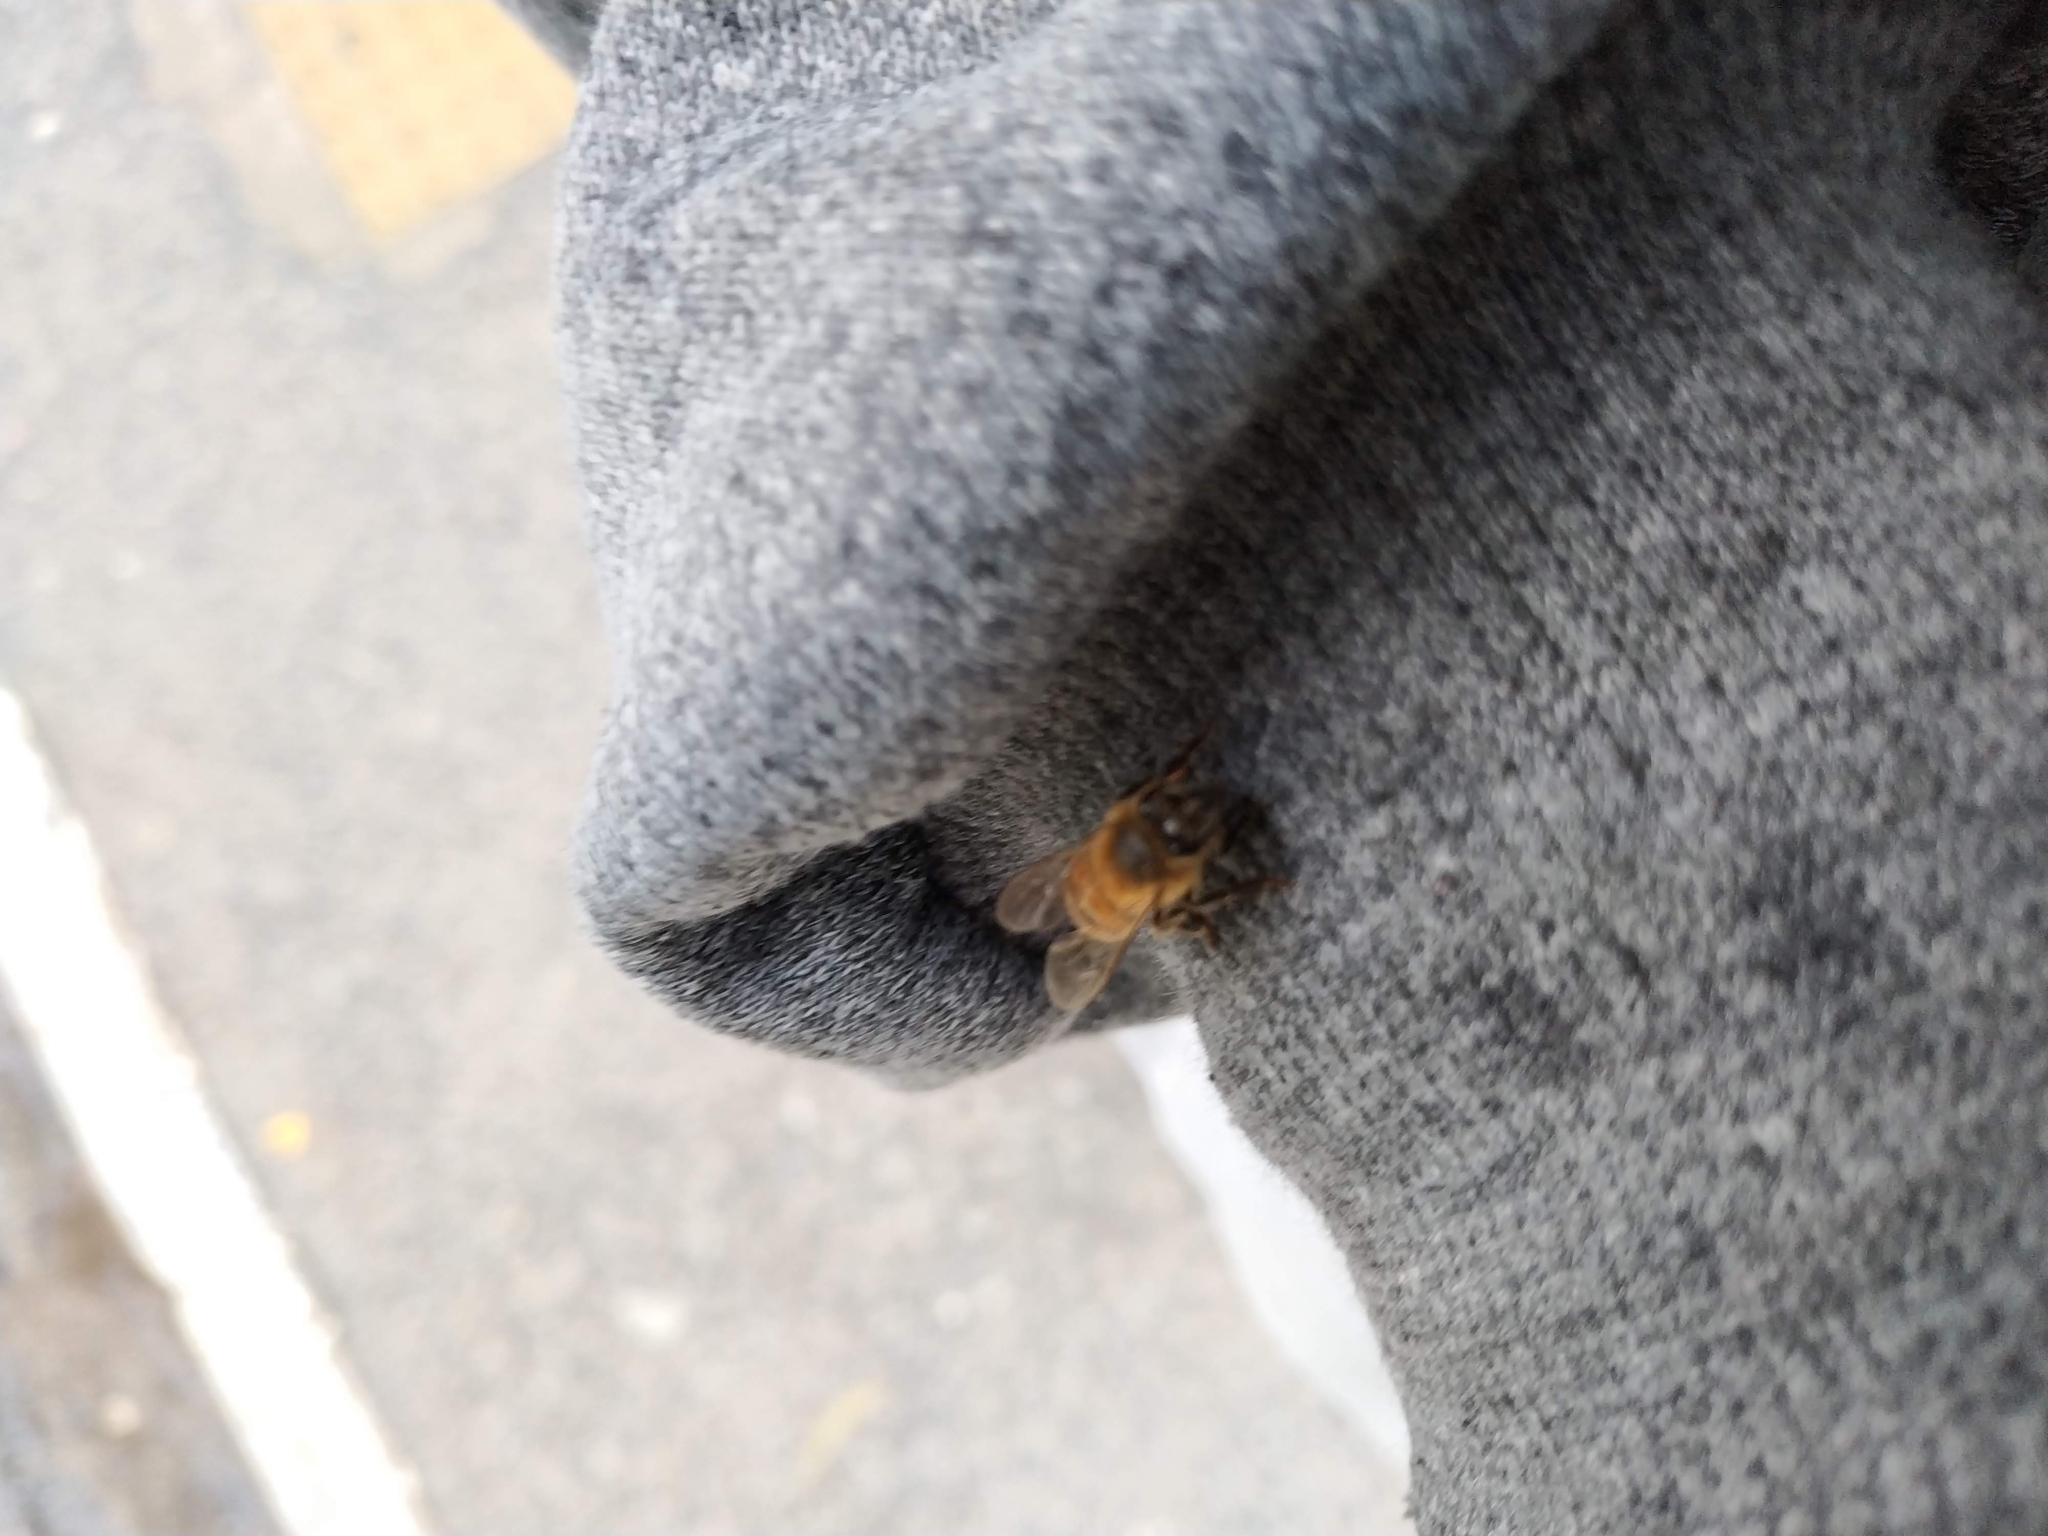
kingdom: Animalia
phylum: Arthropoda
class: Insecta
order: Hymenoptera
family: Apidae
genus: Apis
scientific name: Apis mellifera
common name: Honey bee
